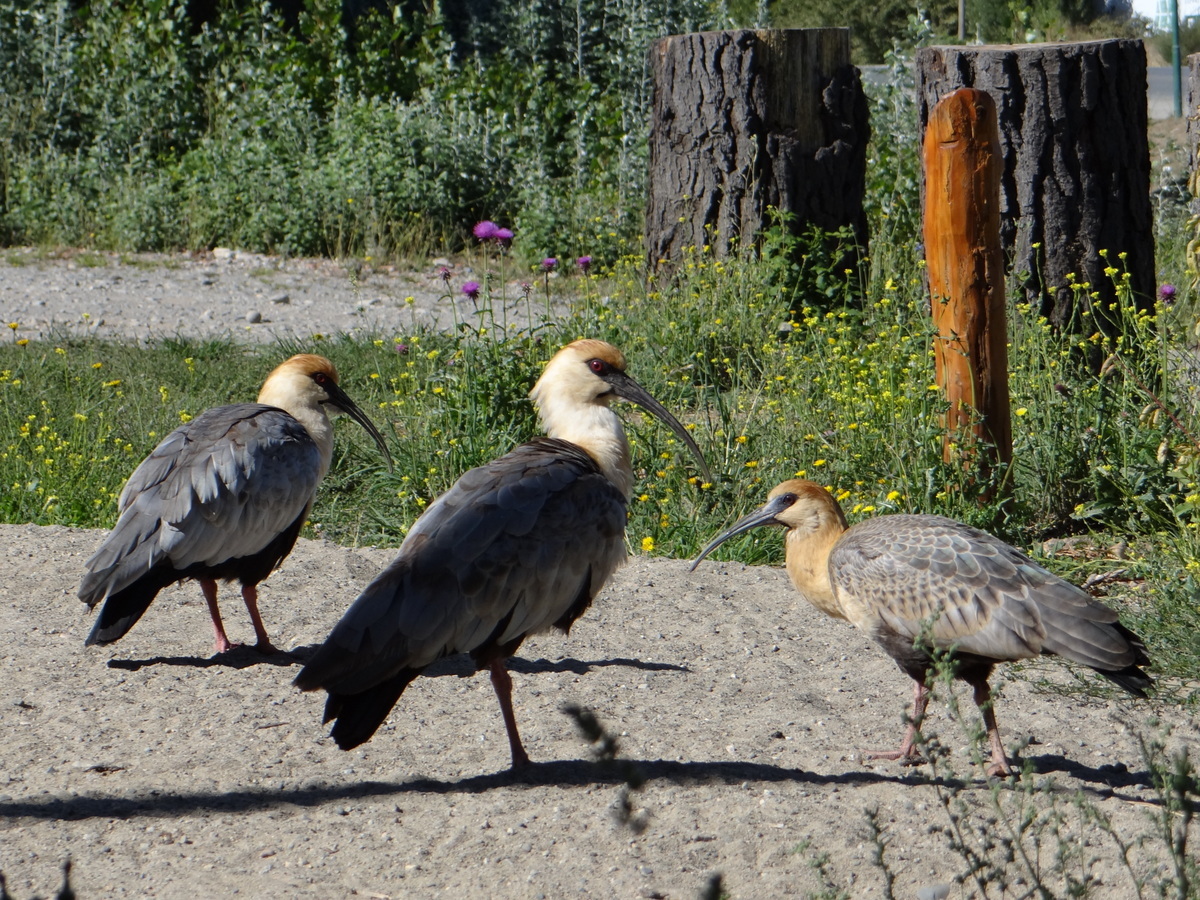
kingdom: Animalia
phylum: Chordata
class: Aves
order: Pelecaniformes
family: Threskiornithidae
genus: Theristicus
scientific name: Theristicus melanopis
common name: Black-faced ibis
